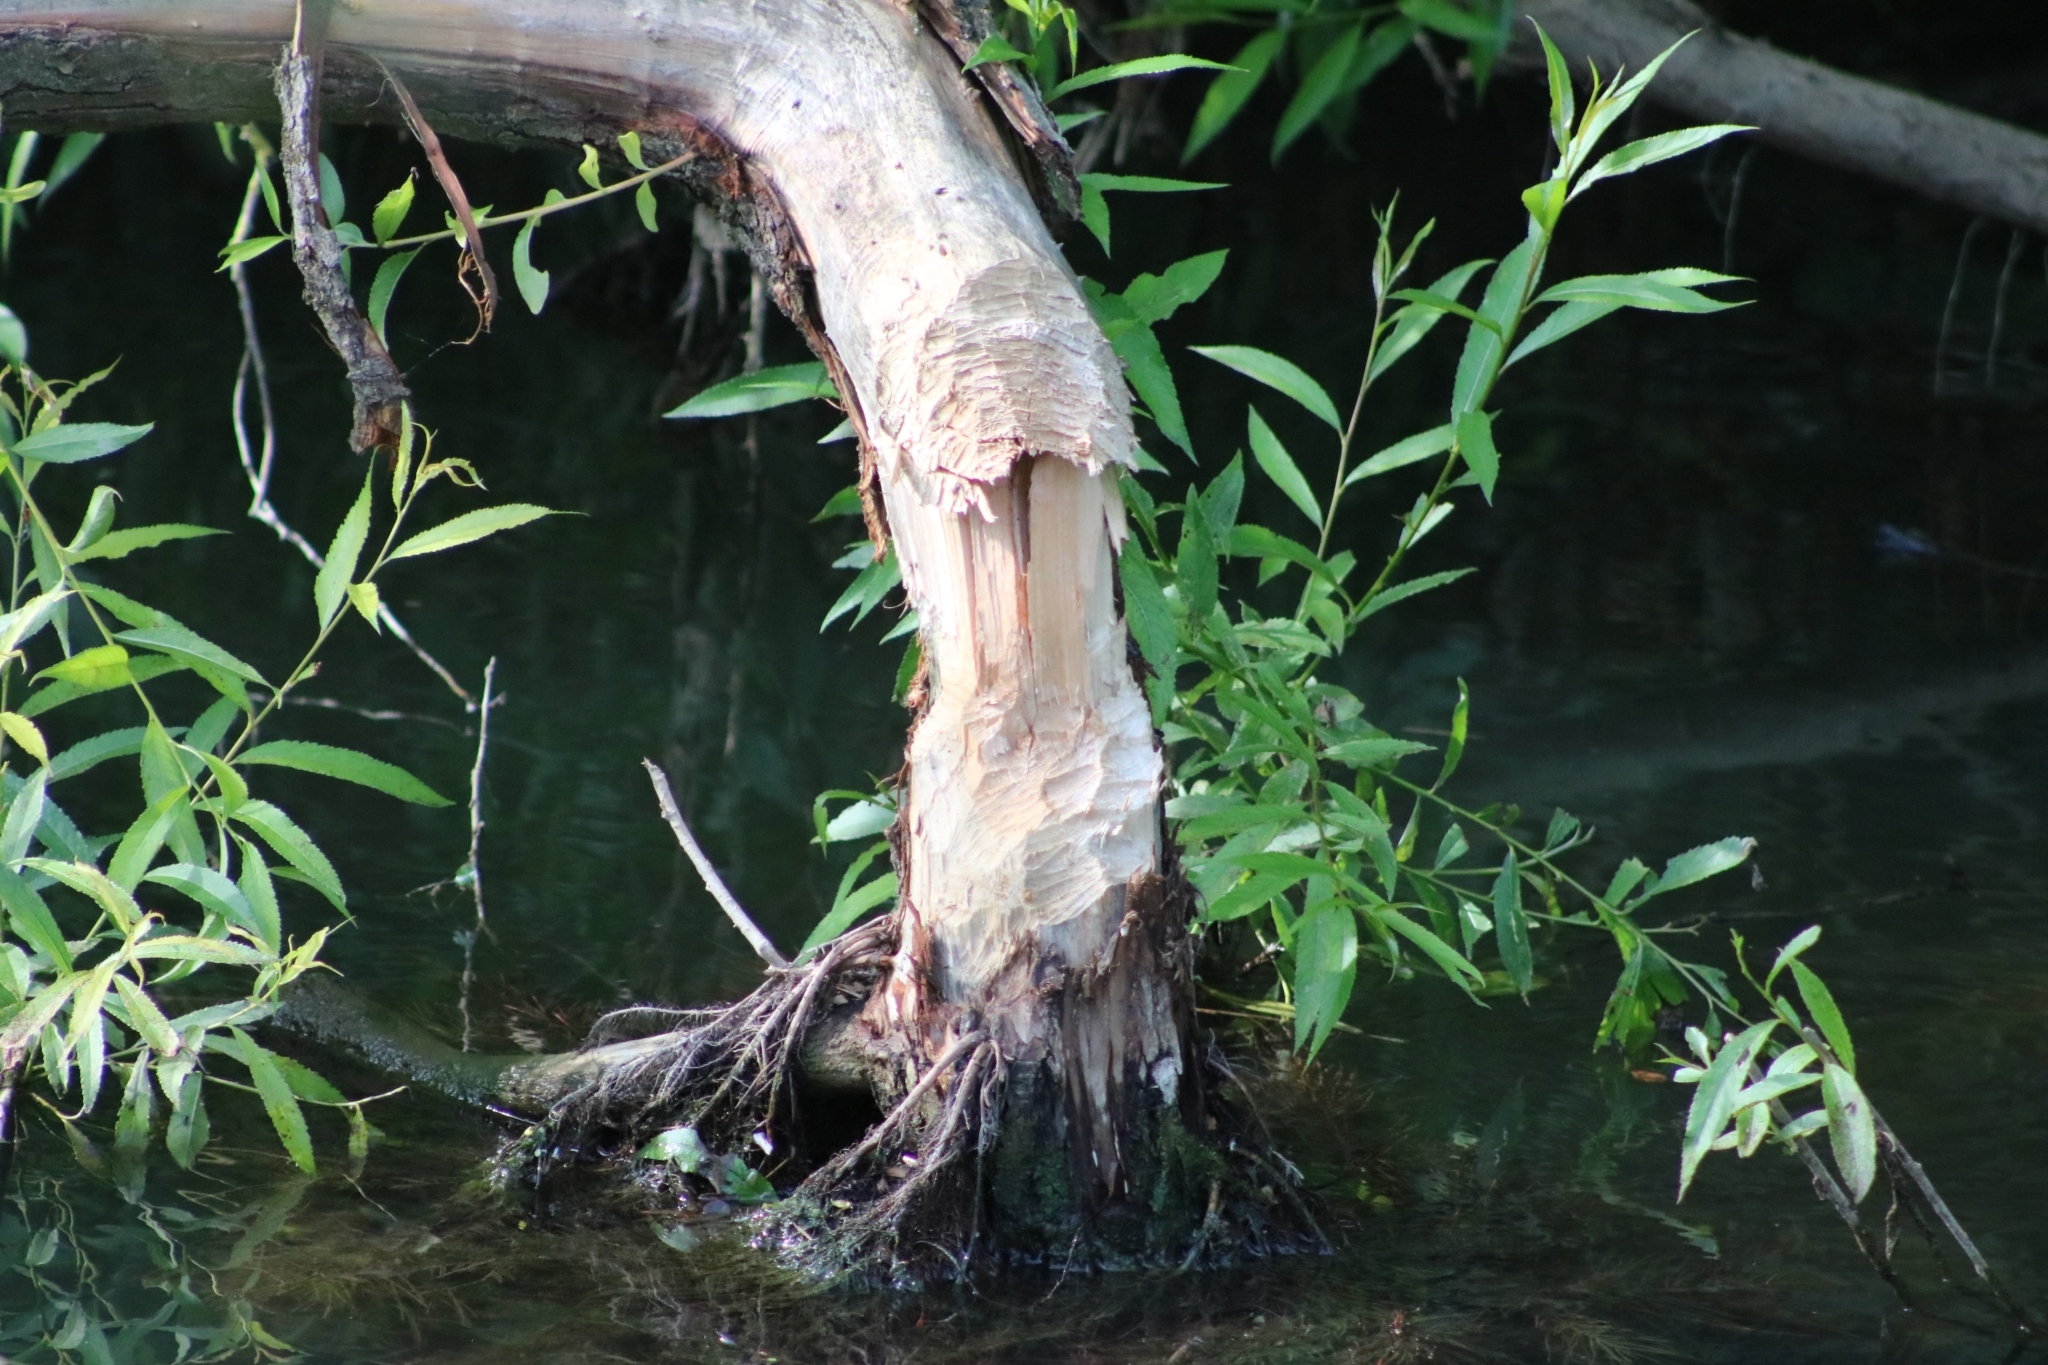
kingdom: Animalia
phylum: Chordata
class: Mammalia
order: Rodentia
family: Castoridae
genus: Castor
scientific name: Castor fiber
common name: Eurasian beaver
